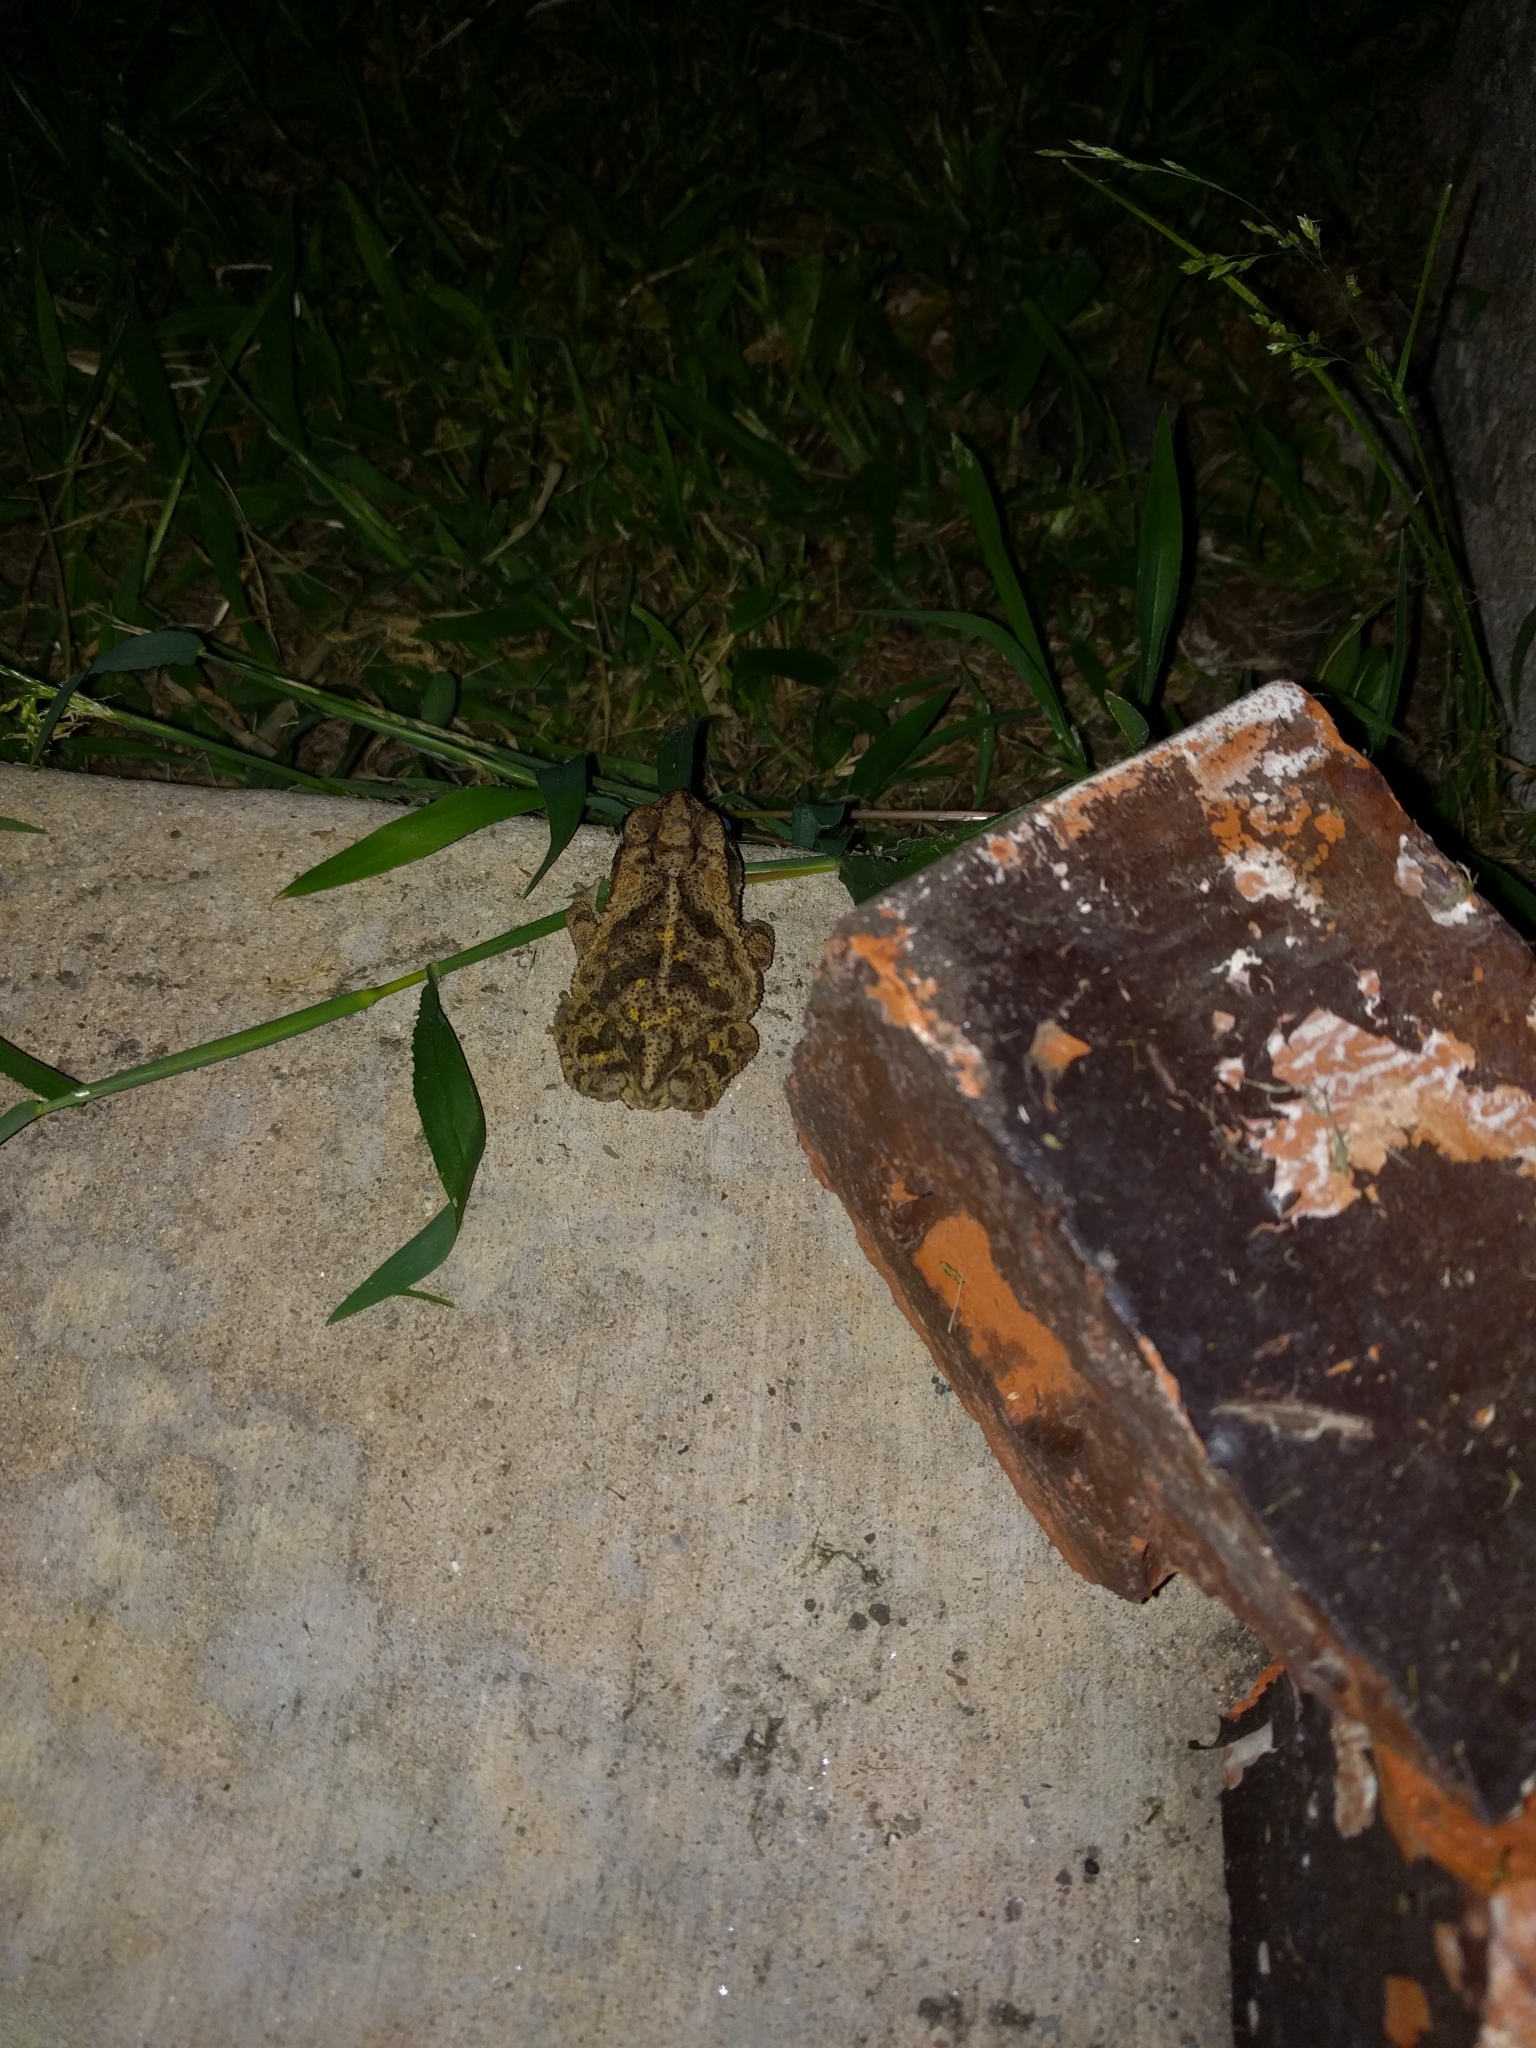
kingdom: Animalia
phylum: Chordata
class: Amphibia
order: Anura
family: Bufonidae
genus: Incilius
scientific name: Incilius nebulifer
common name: Gulf coast toad
